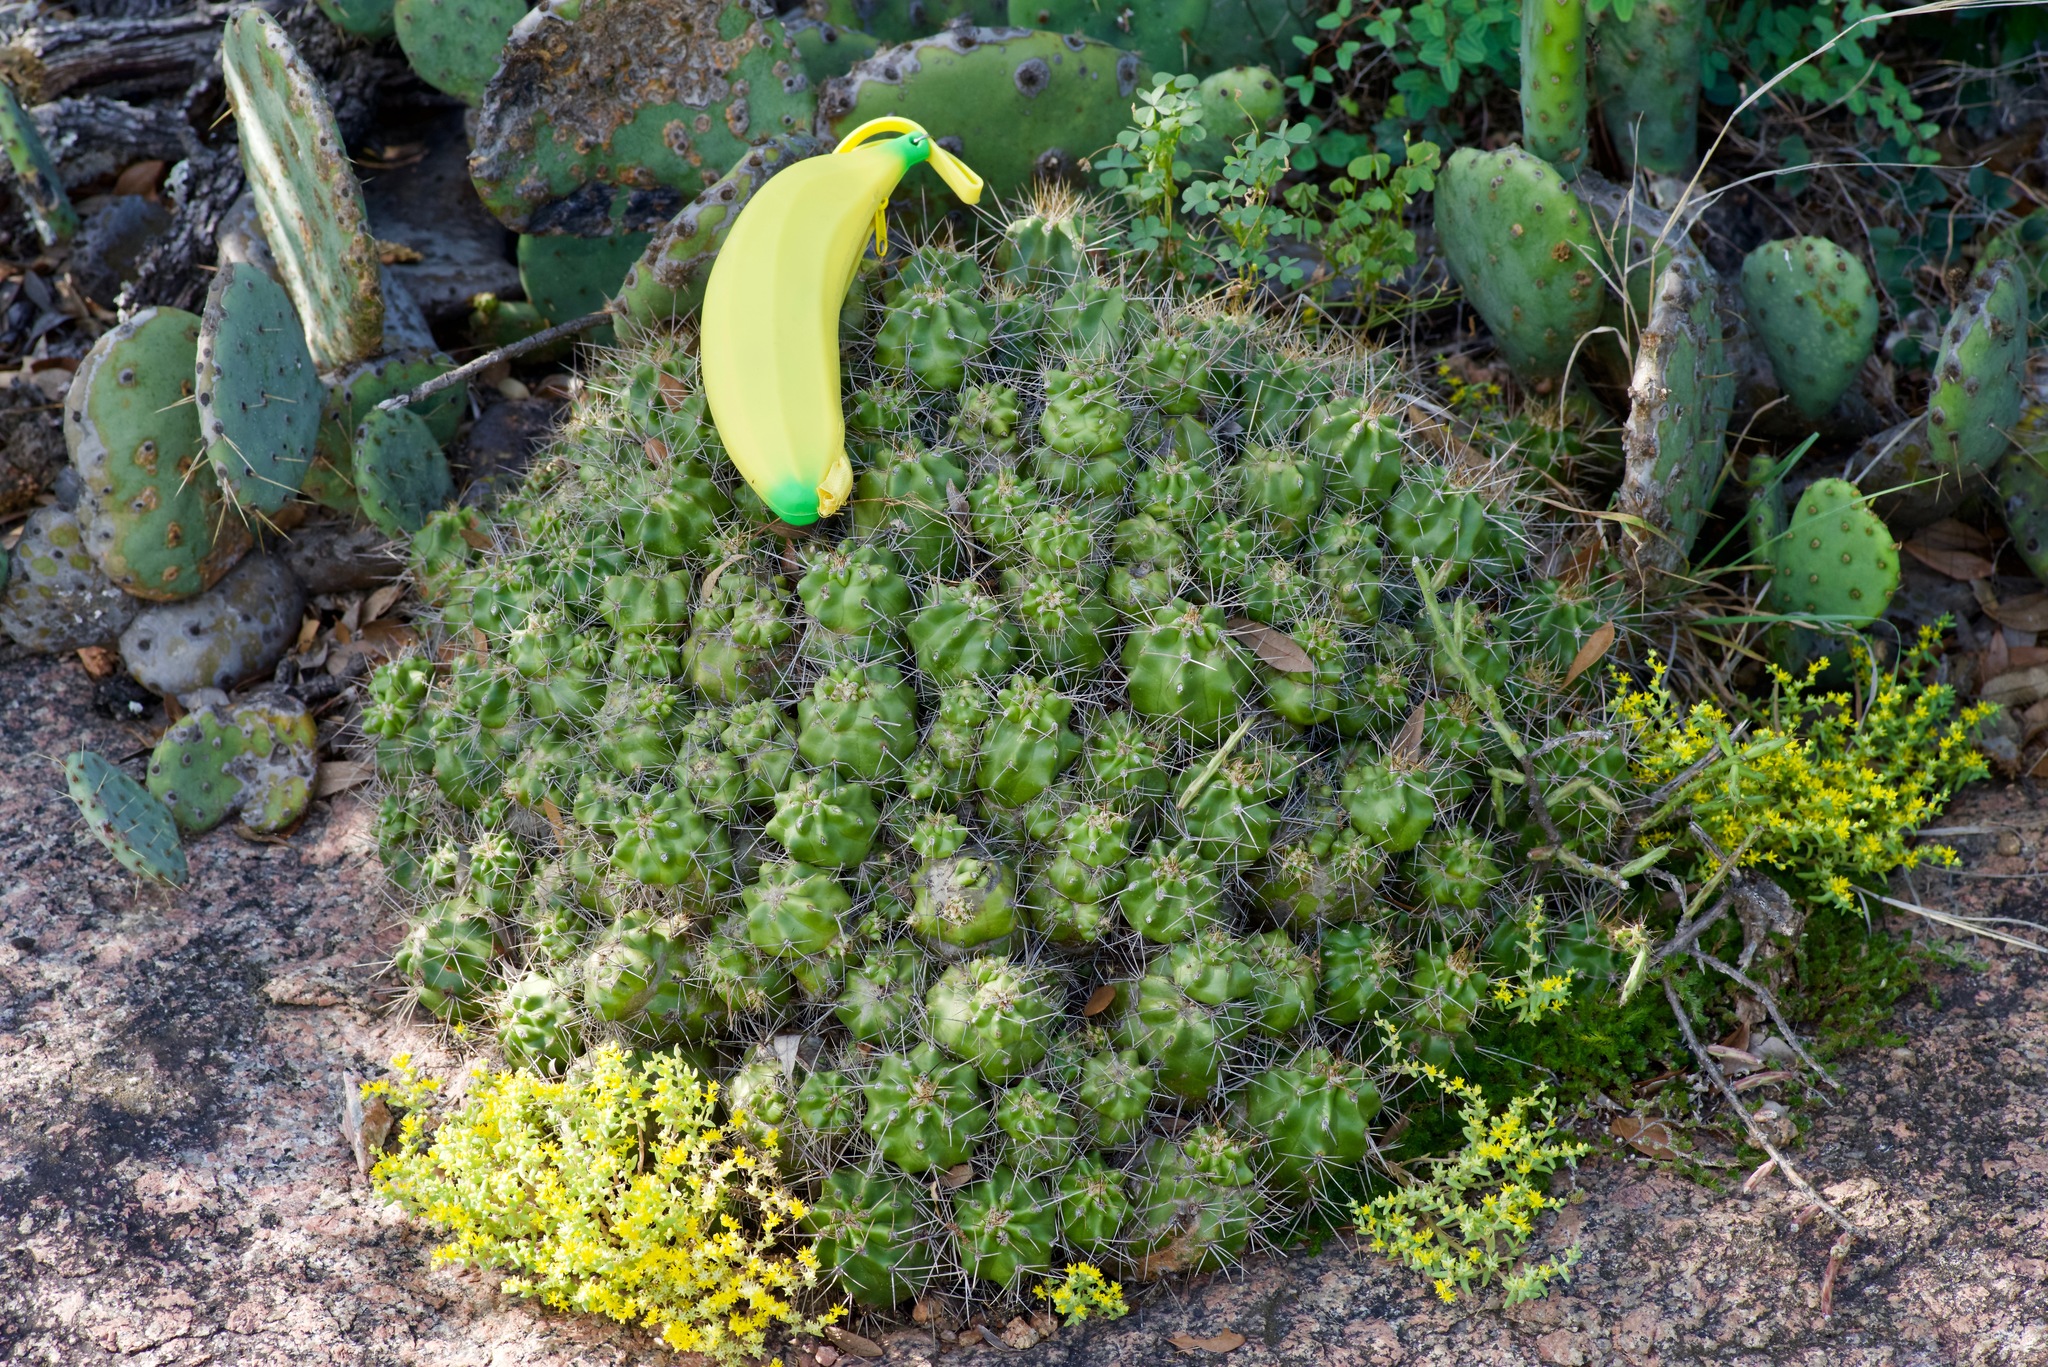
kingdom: Plantae
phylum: Tracheophyta
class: Magnoliopsida
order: Caryophyllales
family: Cactaceae
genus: Echinocereus
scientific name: Echinocereus coccineus
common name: Scarlet hedgehog cactus
